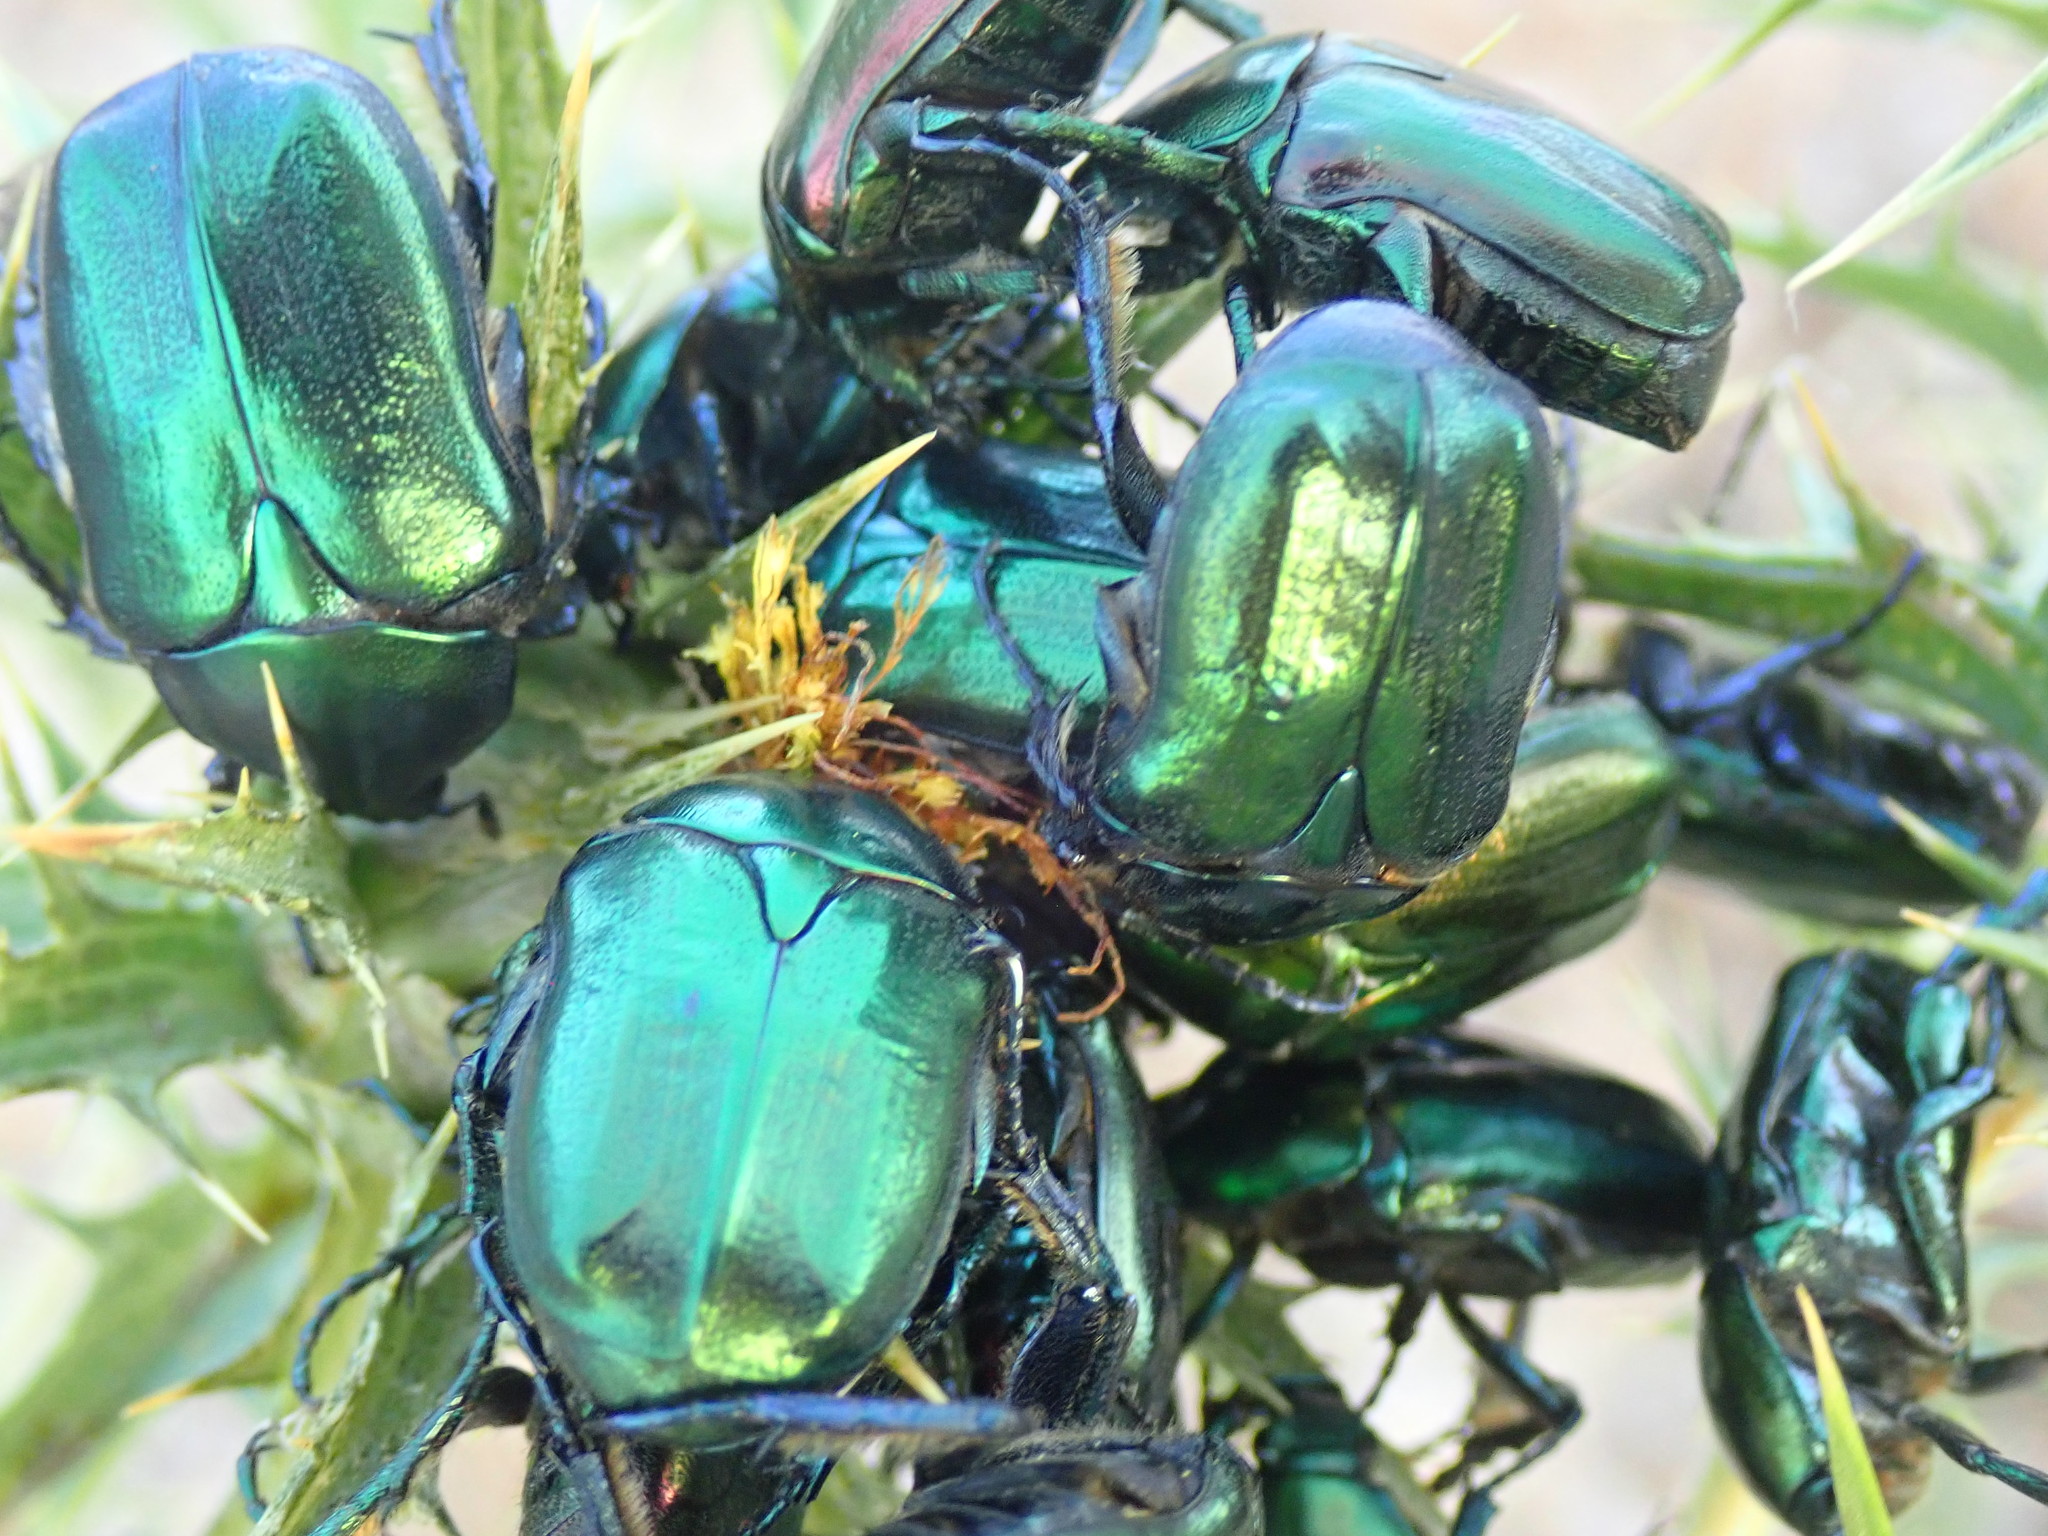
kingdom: Animalia
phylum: Arthropoda
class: Insecta
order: Coleoptera
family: Scarabaeidae
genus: Protaetia
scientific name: Protaetia angustata
